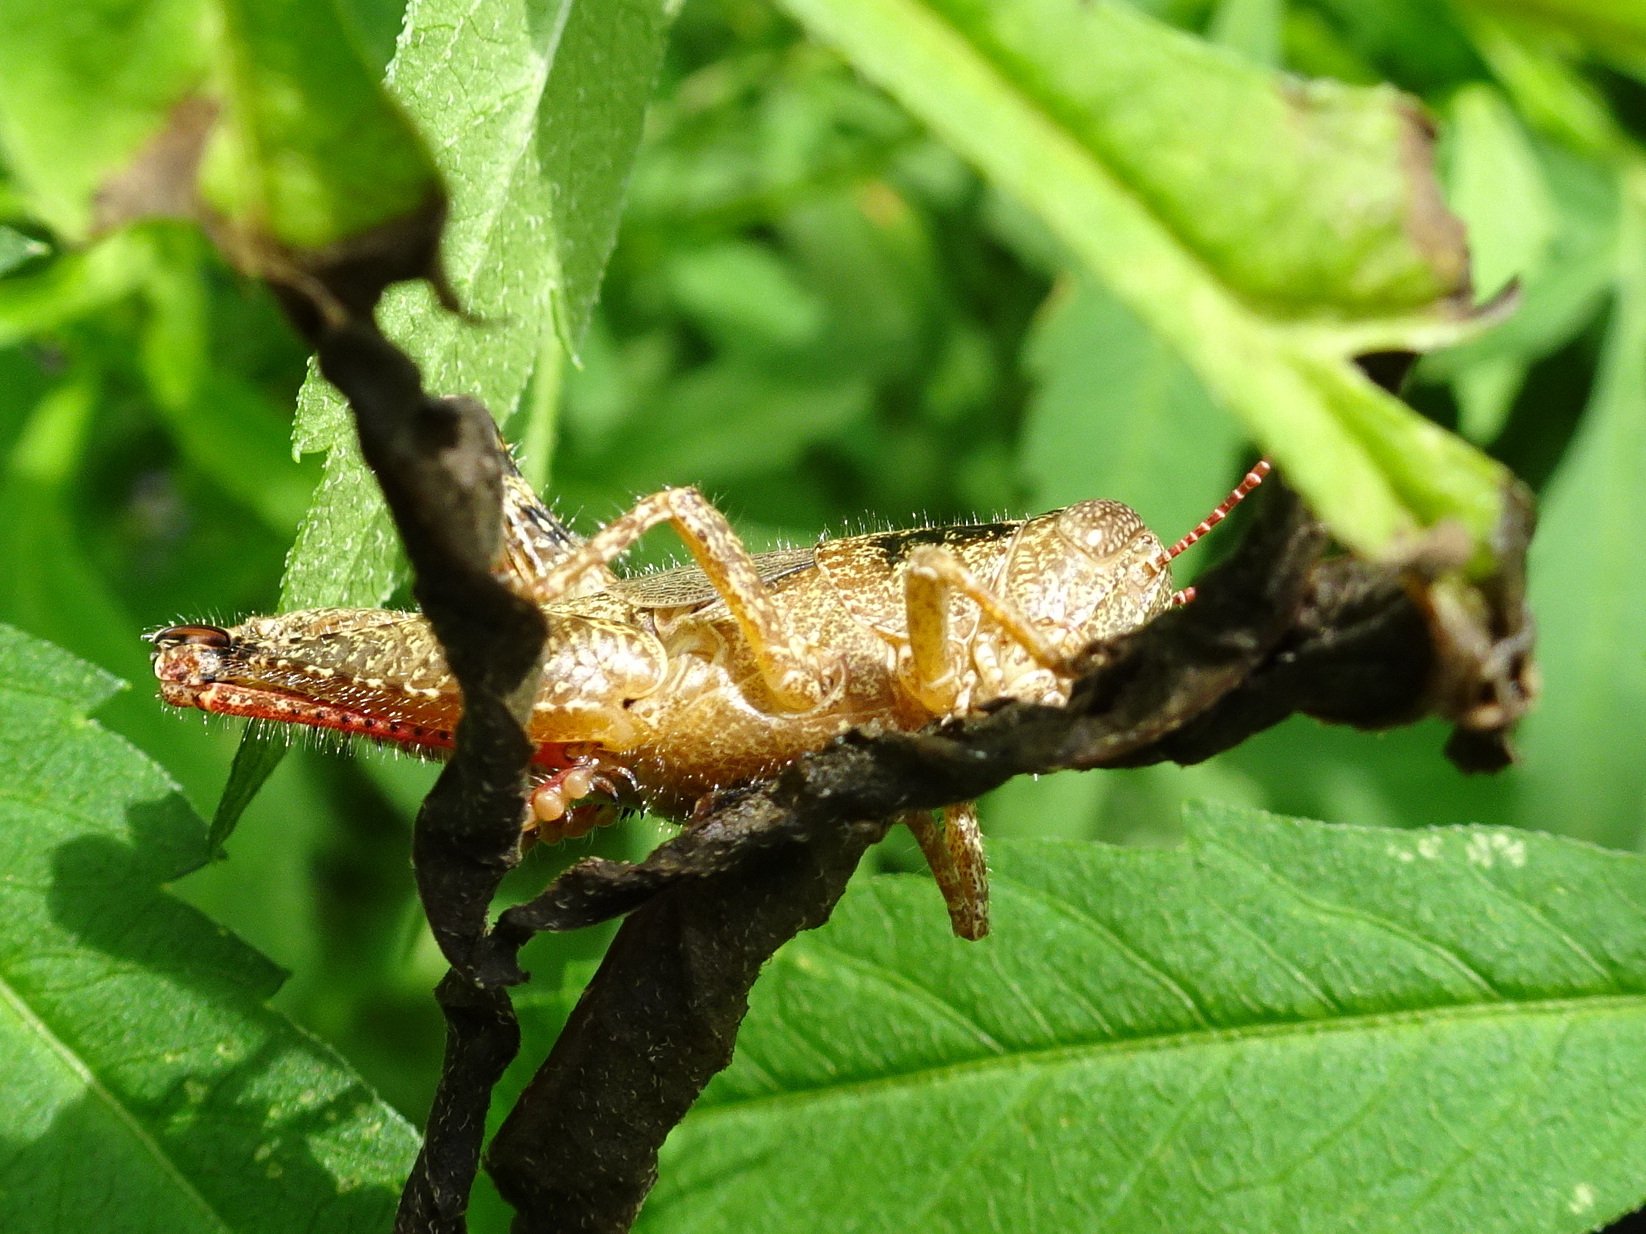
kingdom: Animalia
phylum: Arthropoda
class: Insecta
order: Orthoptera
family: Acrididae
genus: Melanoplus
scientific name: Melanoplus scudderi
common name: Scudder's short-winged locust
